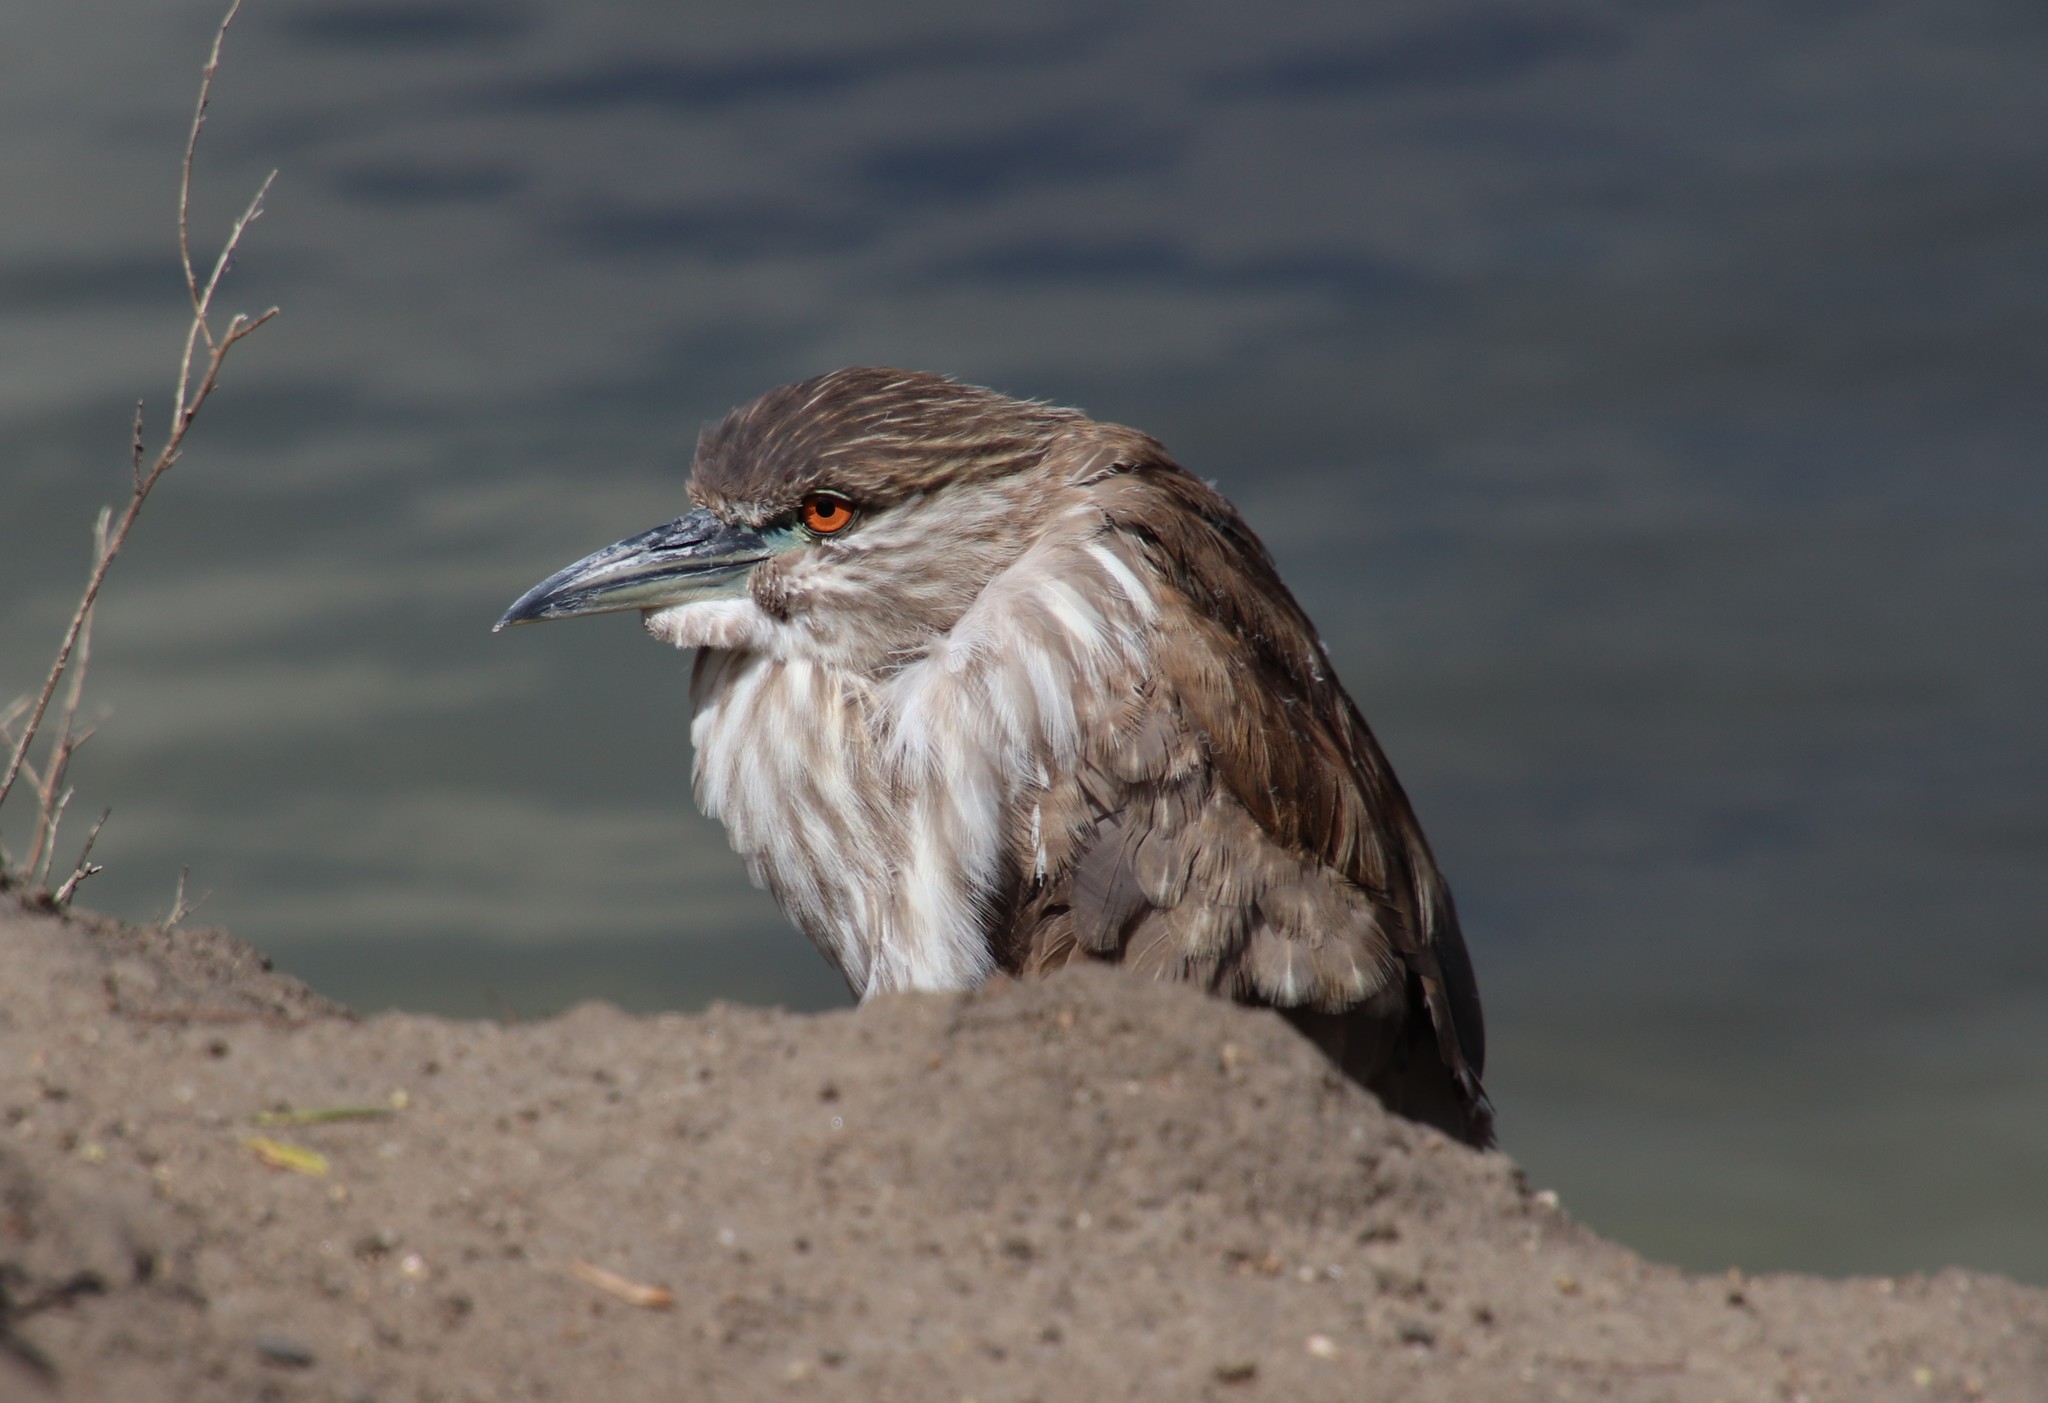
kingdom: Animalia
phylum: Chordata
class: Aves
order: Pelecaniformes
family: Ardeidae
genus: Nycticorax
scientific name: Nycticorax nycticorax
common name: Black-crowned night heron
